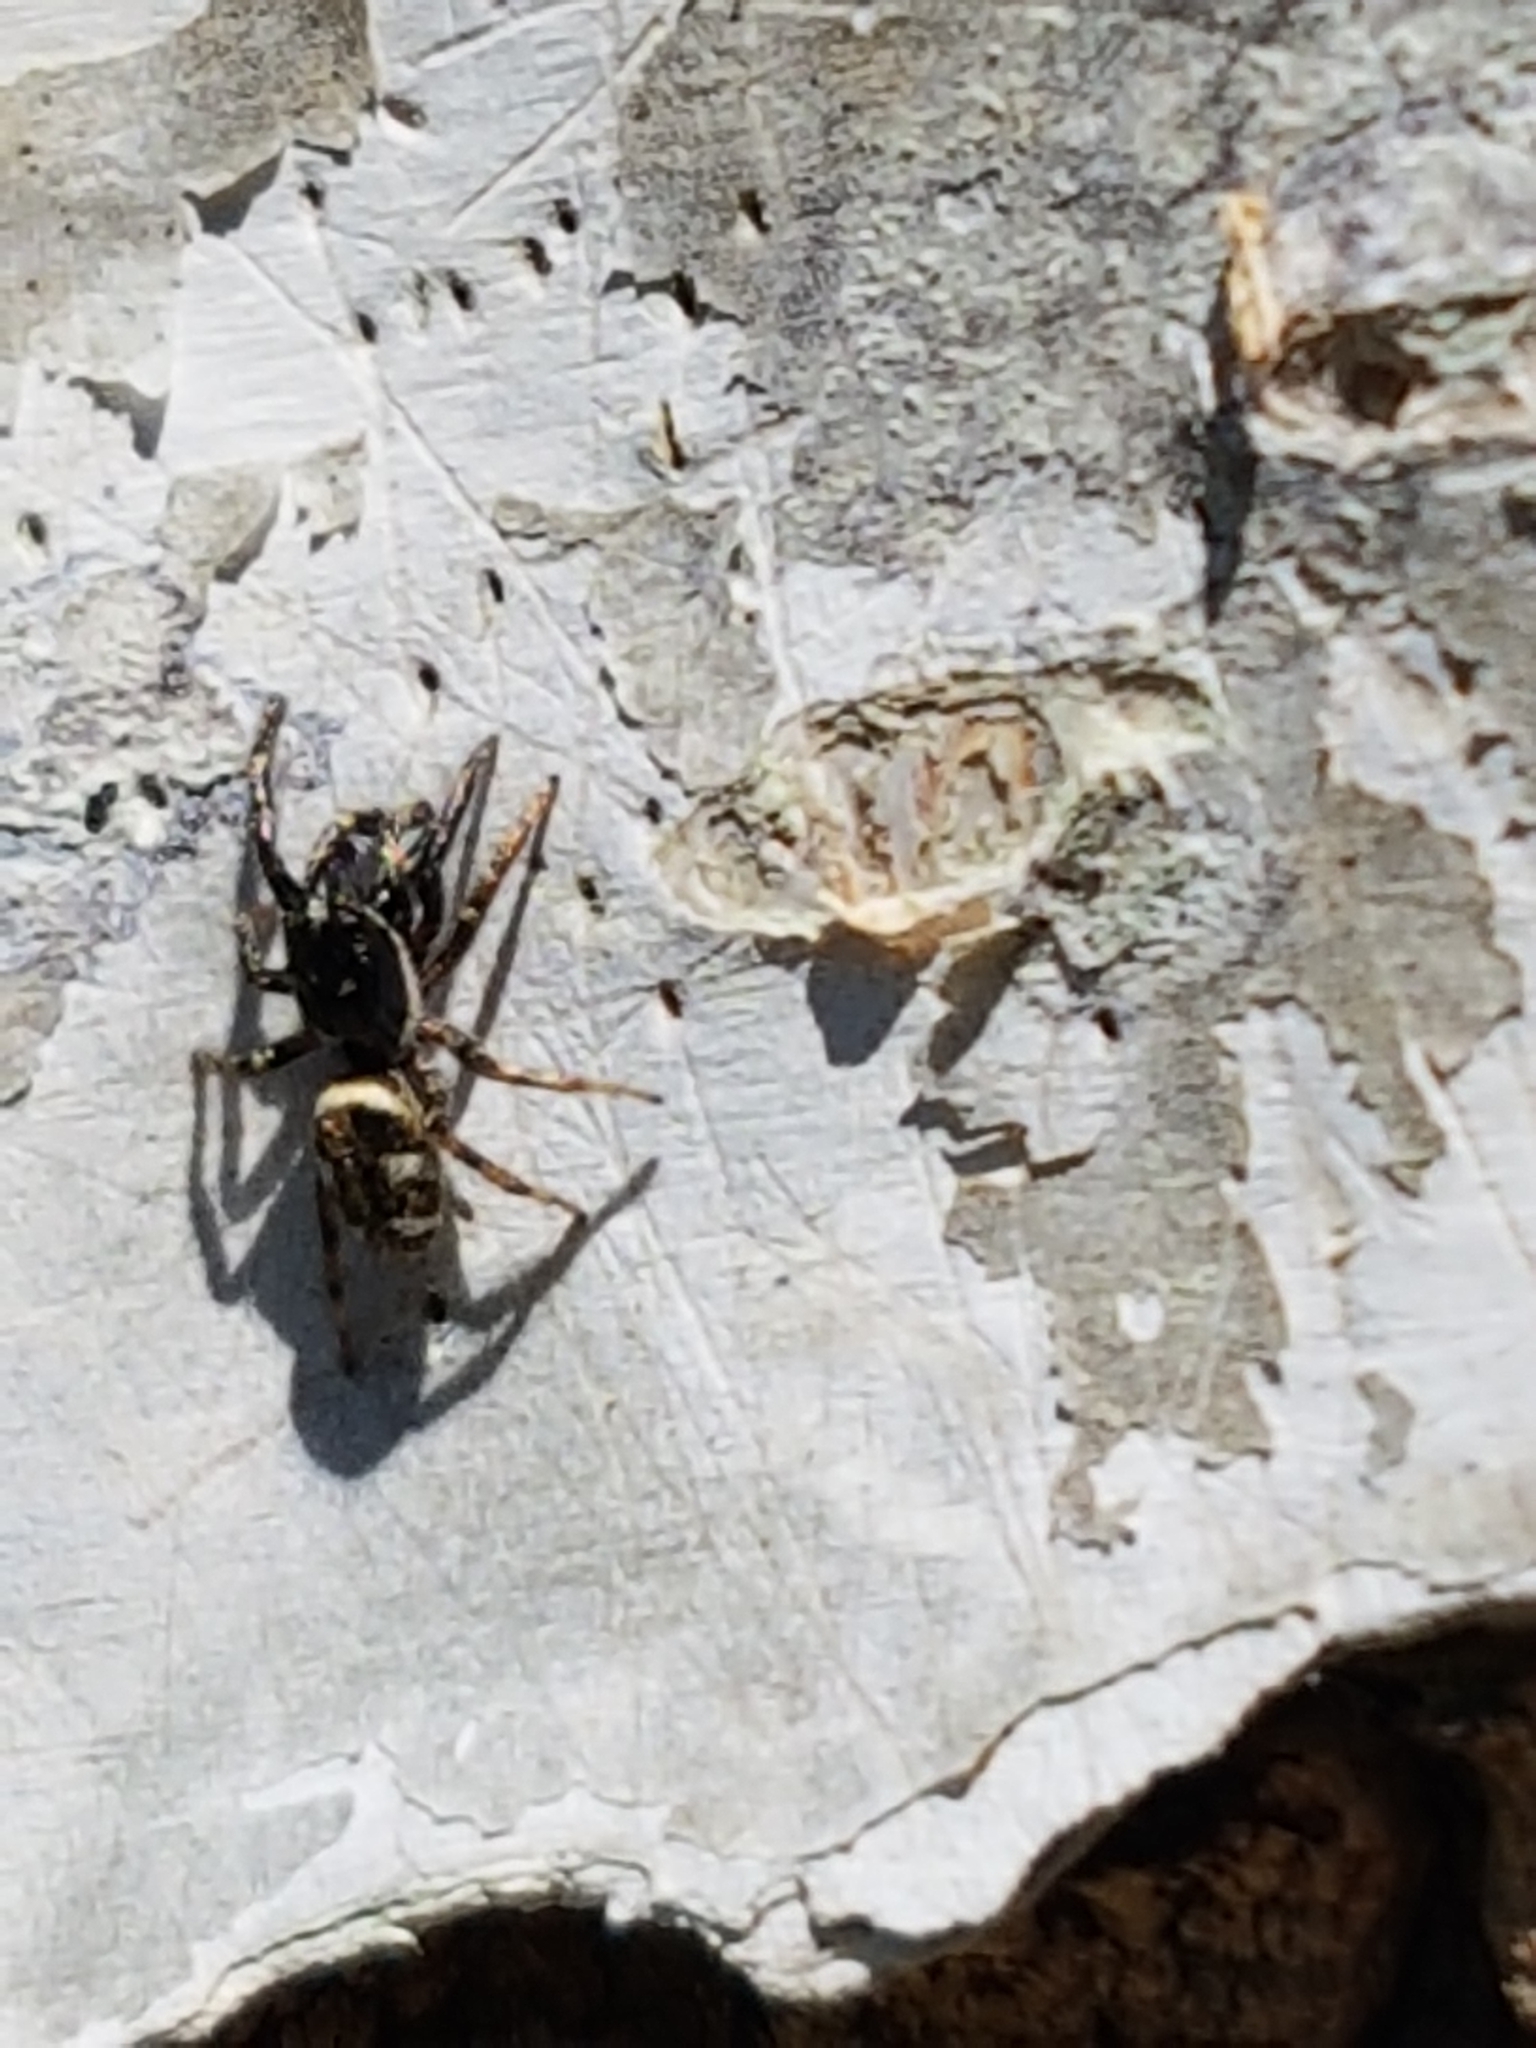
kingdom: Animalia
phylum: Arthropoda
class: Arachnida
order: Araneae
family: Salticidae
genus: Salticus
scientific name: Salticus scenicus
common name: Zebra jumper
